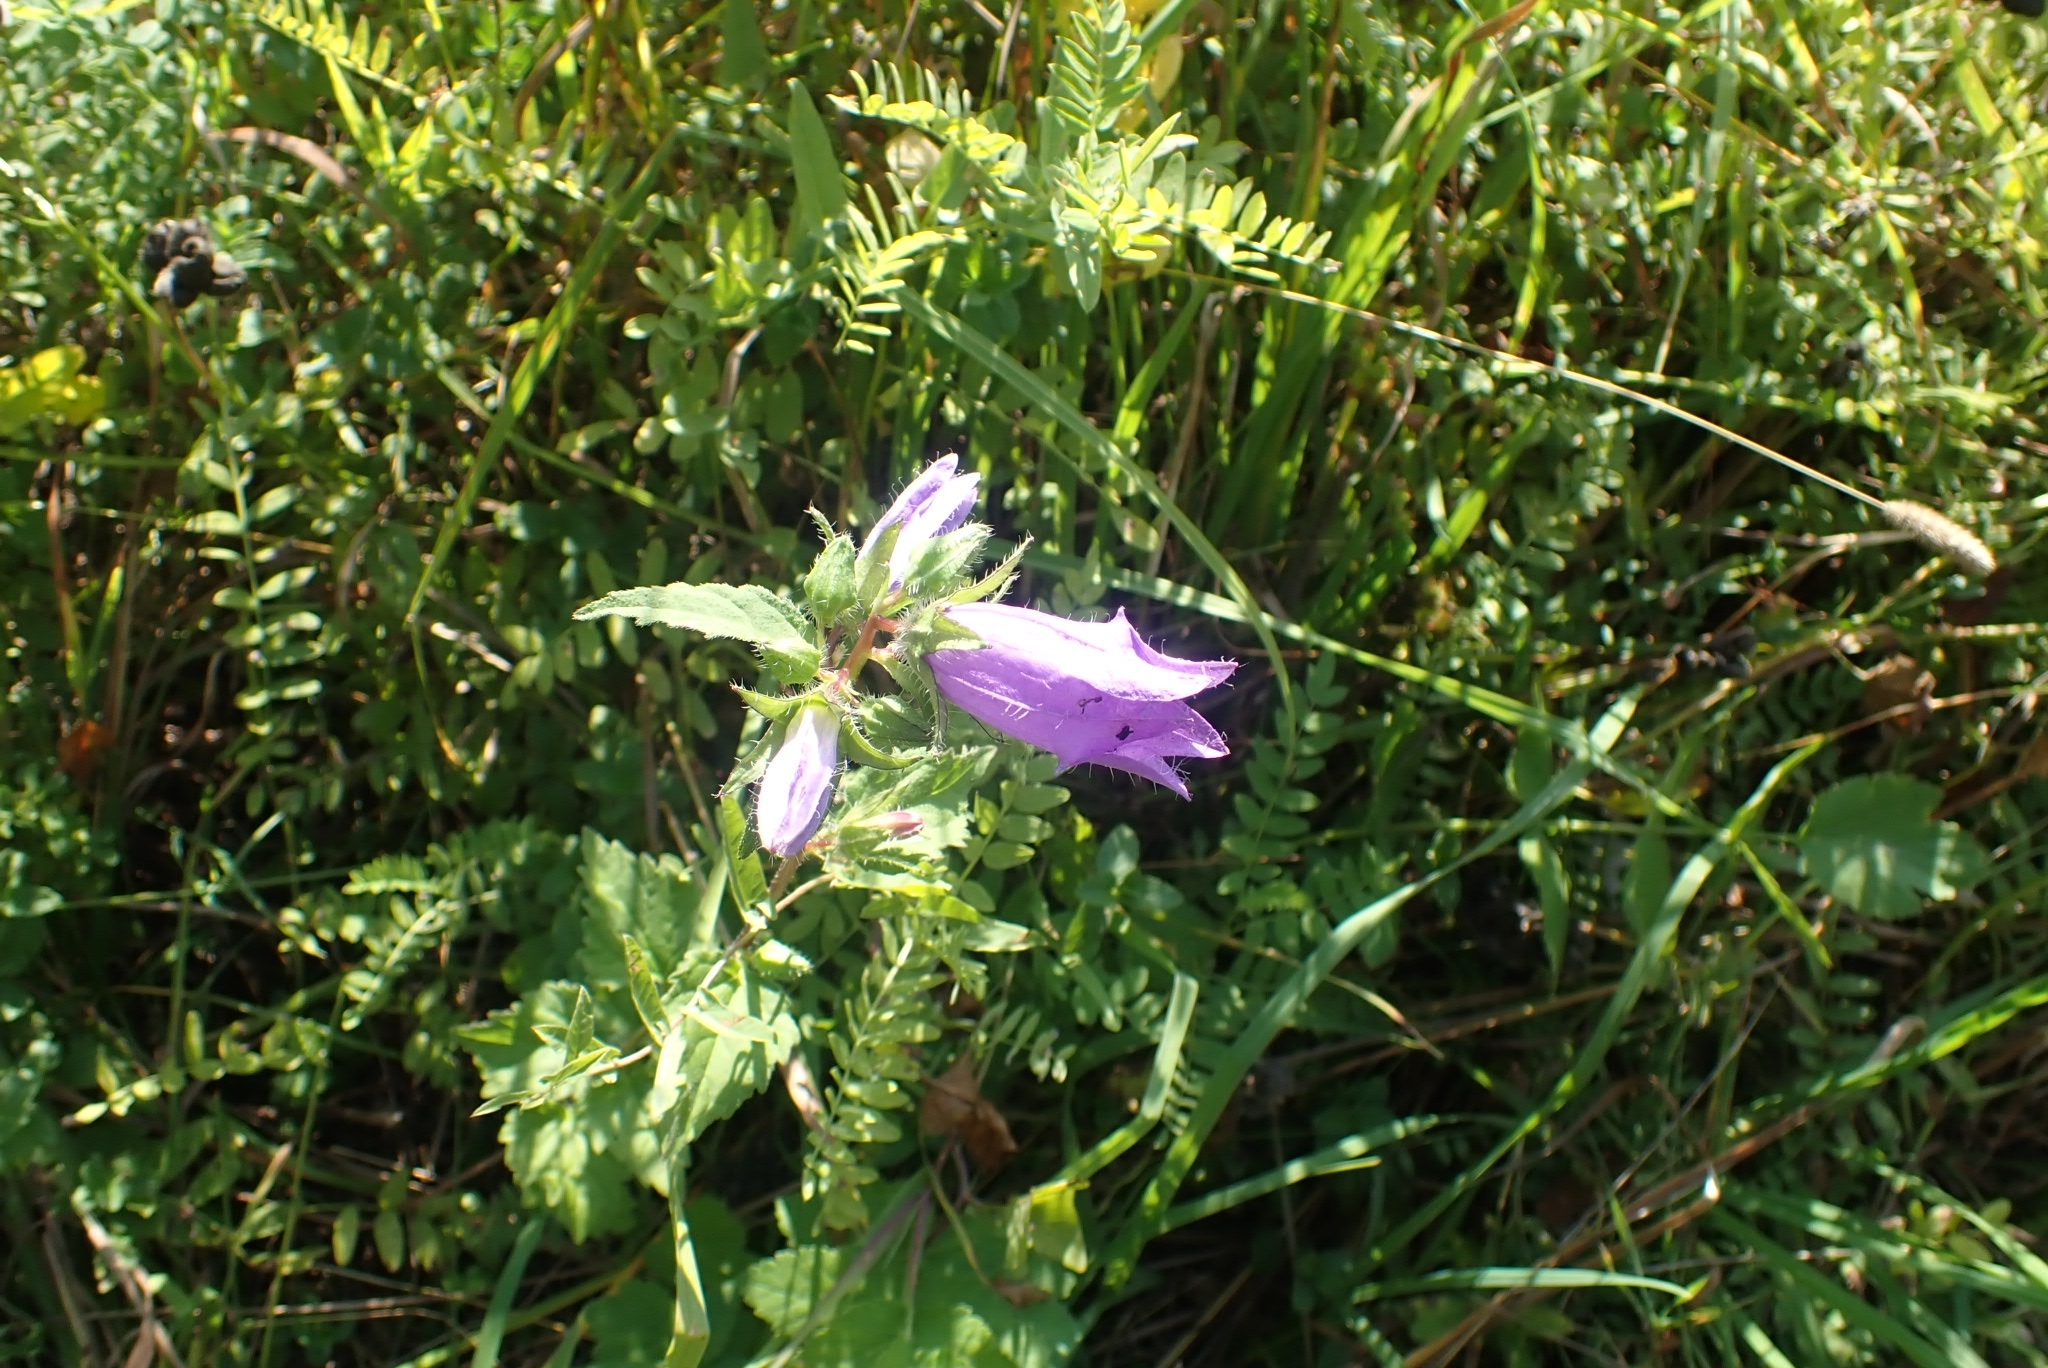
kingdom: Plantae
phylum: Tracheophyta
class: Magnoliopsida
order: Asterales
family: Campanulaceae
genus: Campanula
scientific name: Campanula trachelium
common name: Nettle-leaved bellflower
